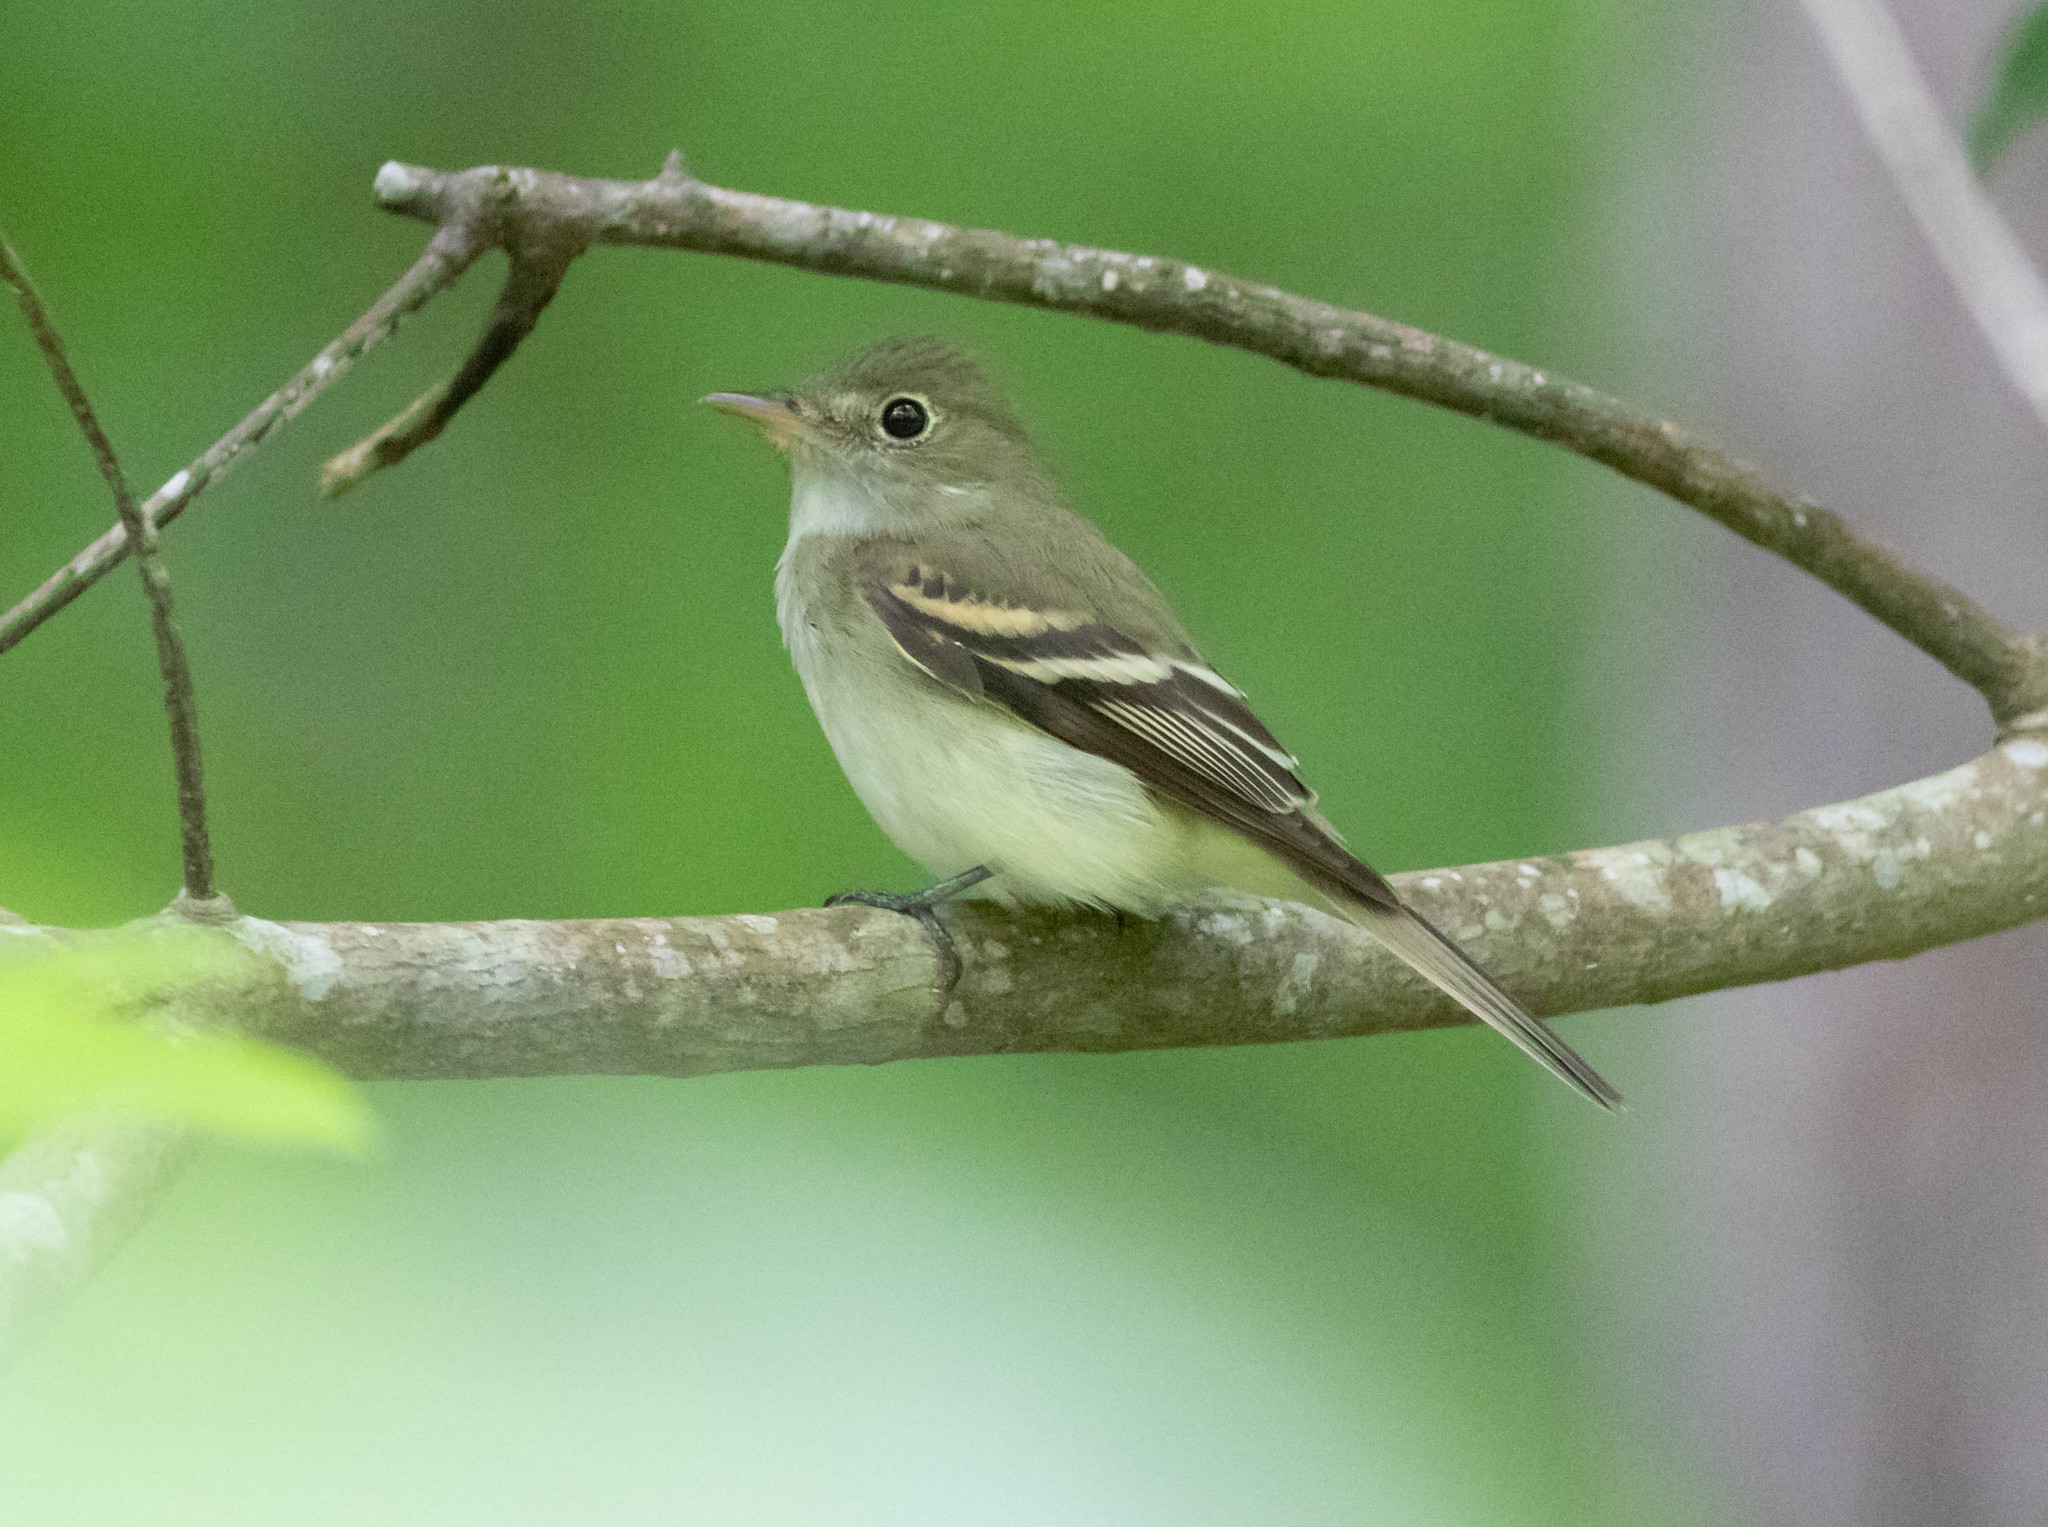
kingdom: Animalia
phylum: Chordata
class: Aves
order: Passeriformes
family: Tyrannidae
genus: Empidonax
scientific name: Empidonax virescens
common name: Acadian flycatcher
